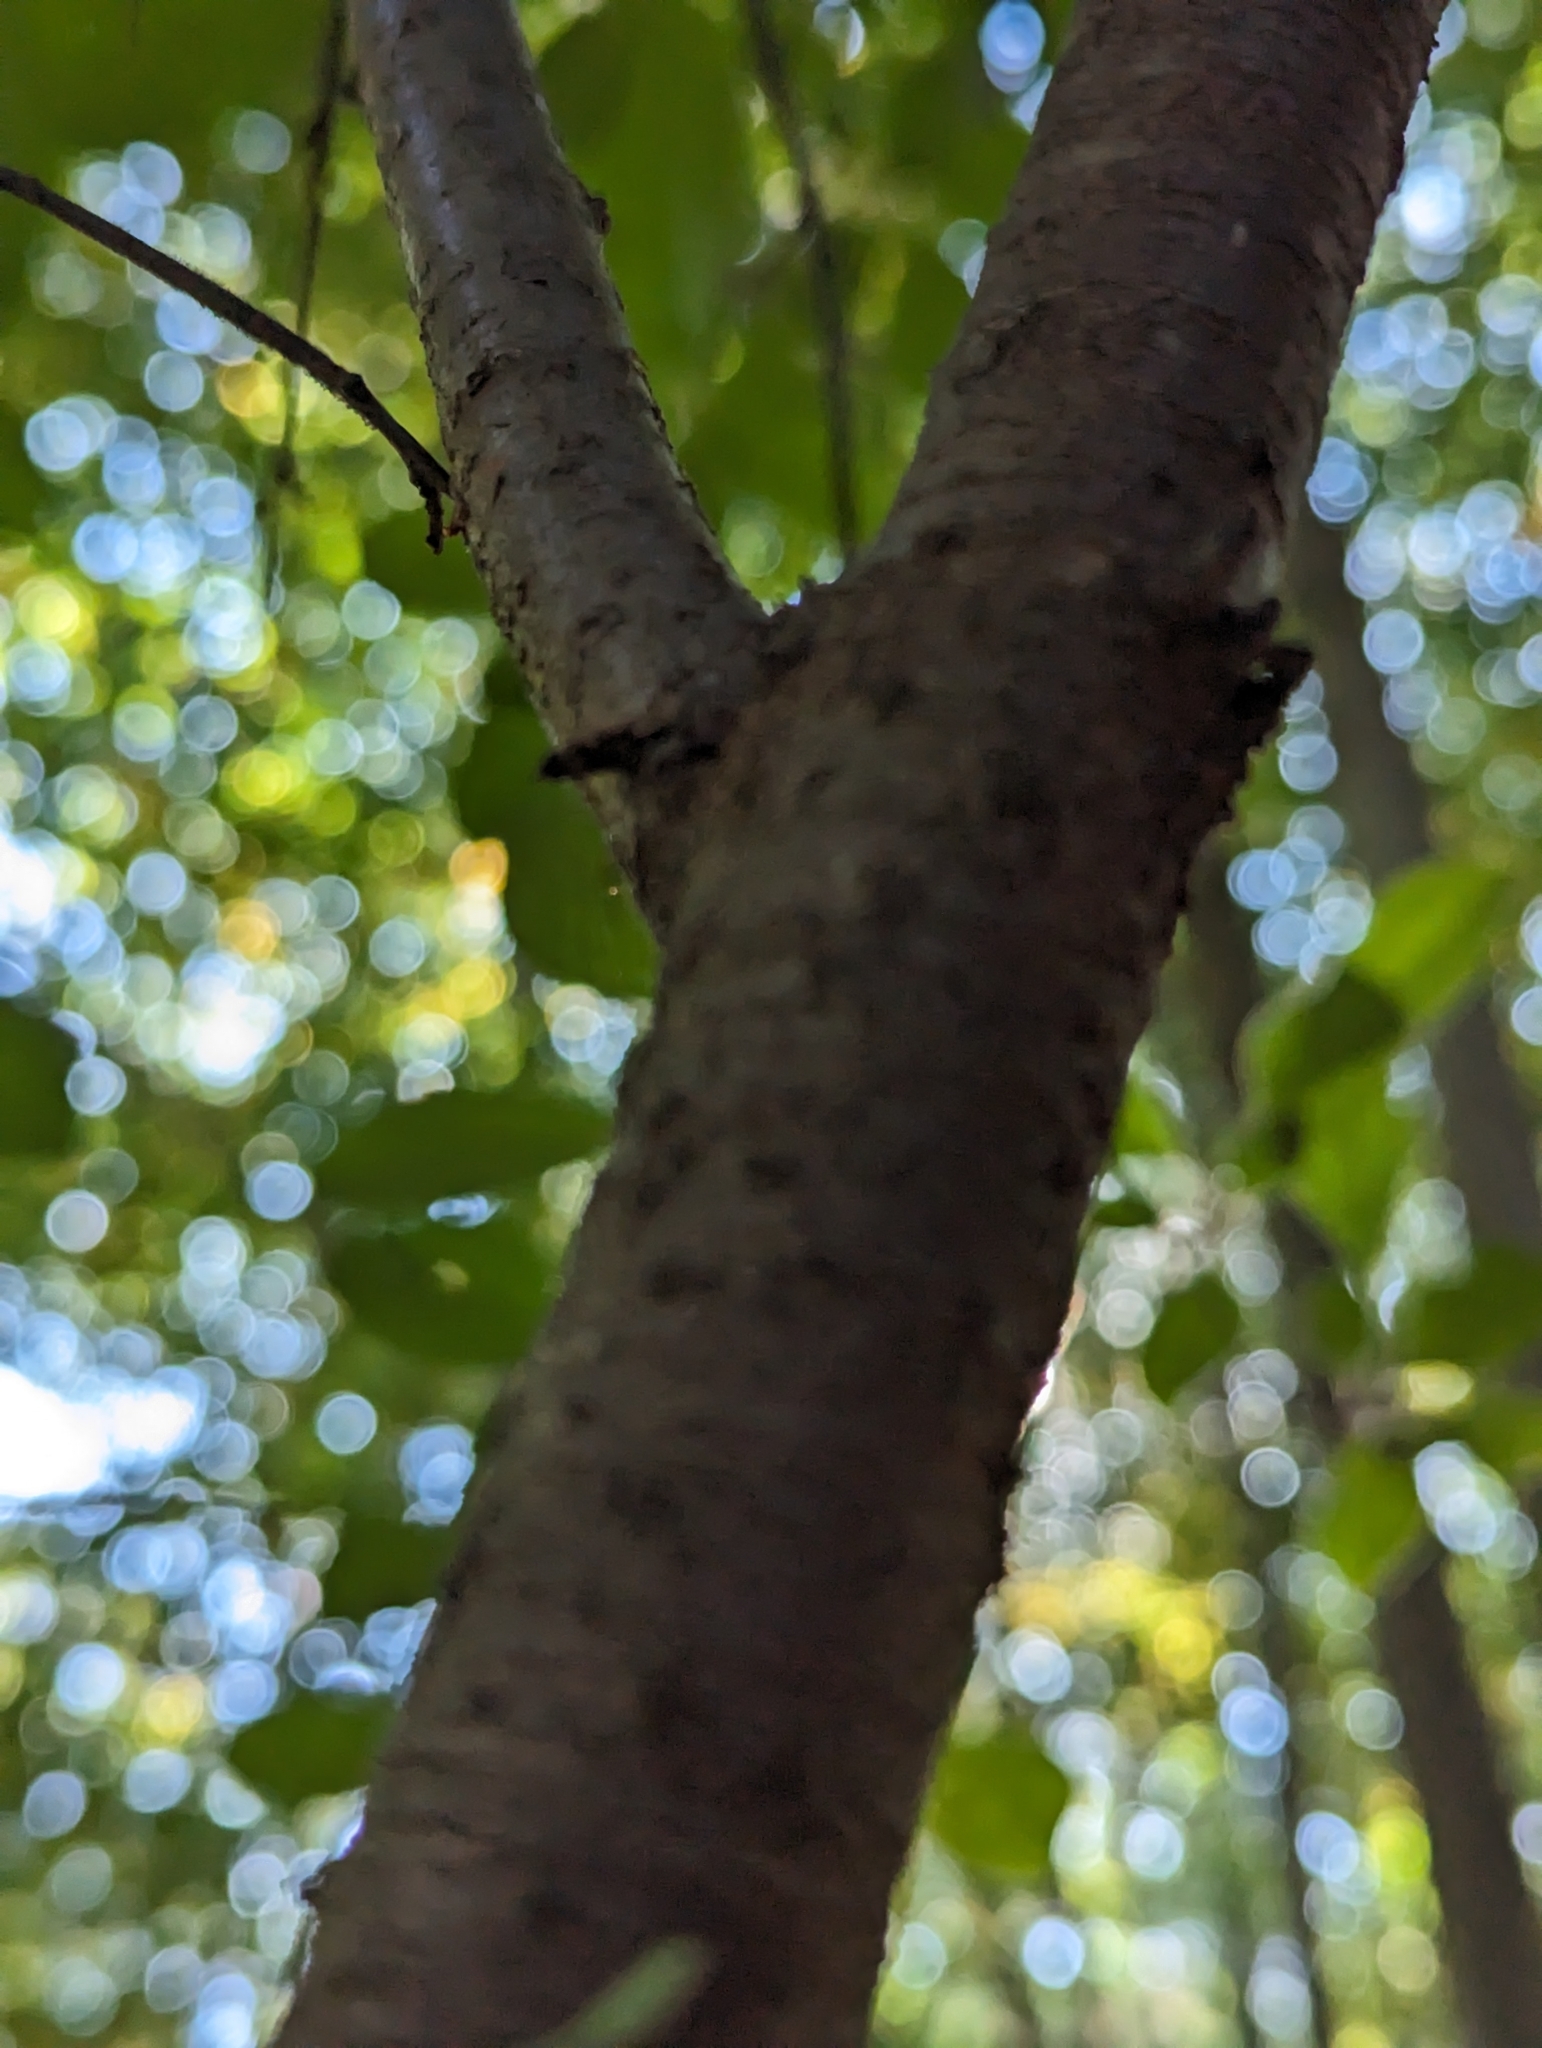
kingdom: Plantae
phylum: Tracheophyta
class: Magnoliopsida
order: Rosales
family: Rhamnaceae
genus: Rhamnus
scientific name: Rhamnus cathartica
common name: Common buckthorn
